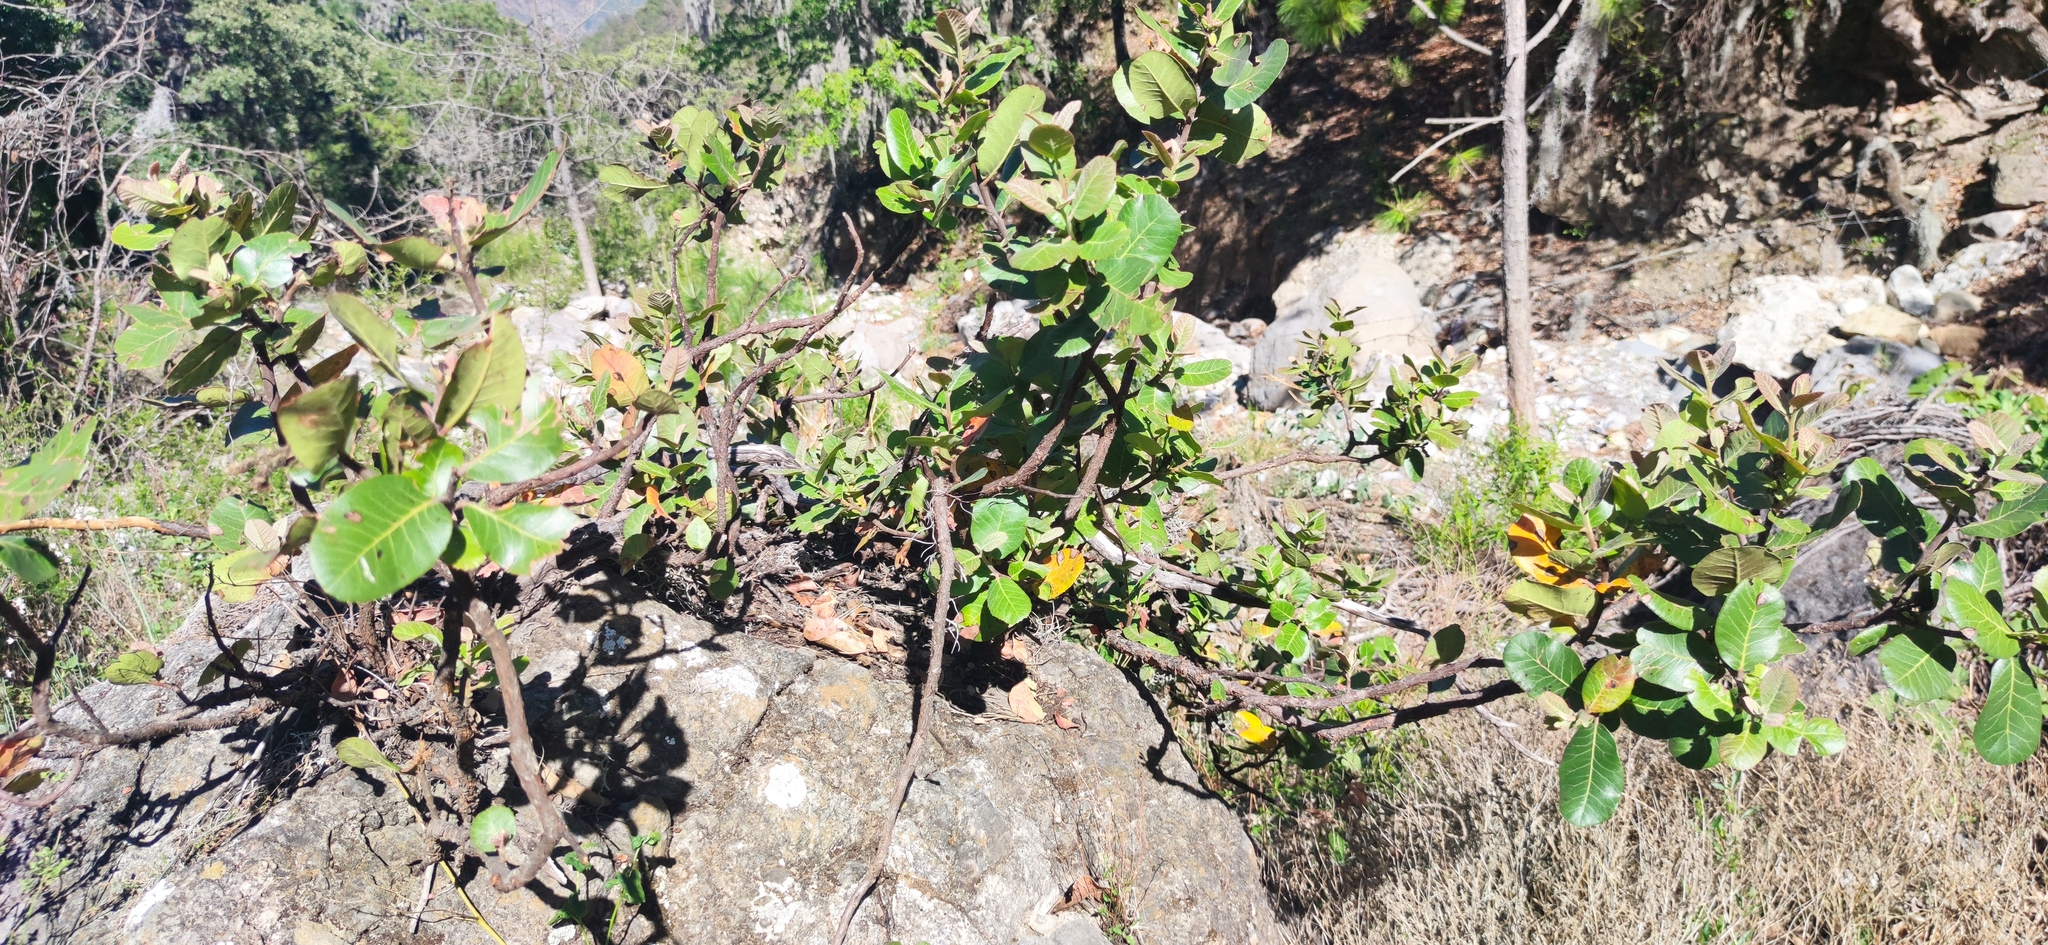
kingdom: Plantae
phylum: Tracheophyta
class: Magnoliopsida
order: Sapindales
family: Anacardiaceae
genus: Rhus
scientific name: Rhus muelleri
